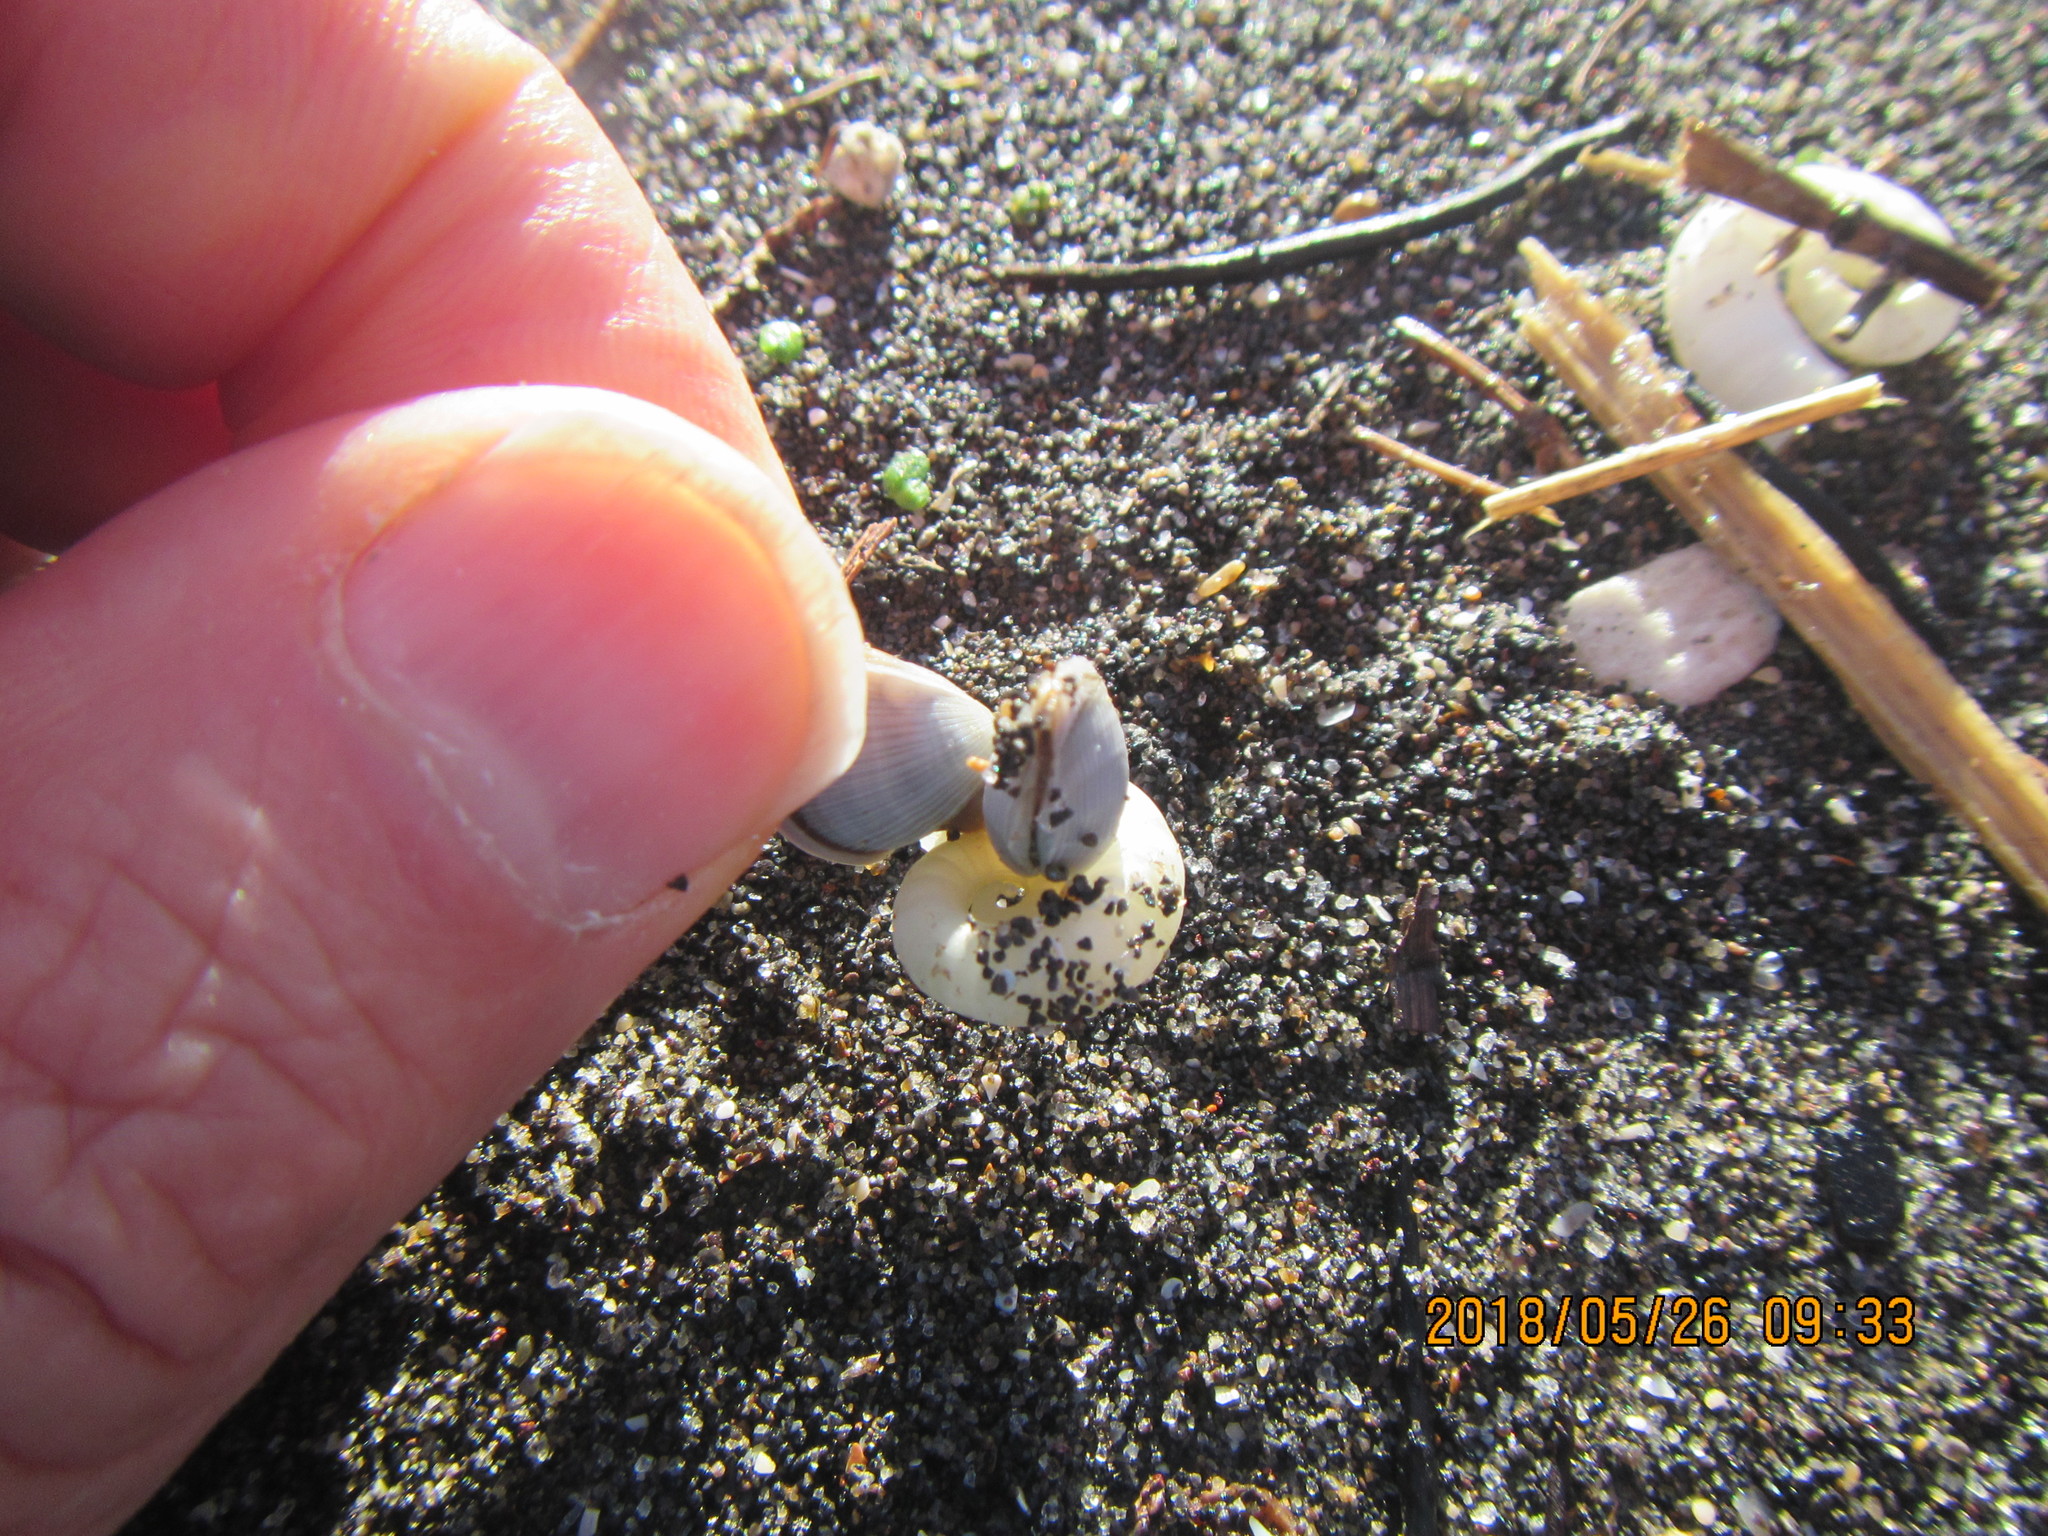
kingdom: Animalia
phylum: Mollusca
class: Cephalopoda
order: Spirulida
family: Spirulidae
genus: Spirula
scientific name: Spirula spirula
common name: Ram's horn squid
